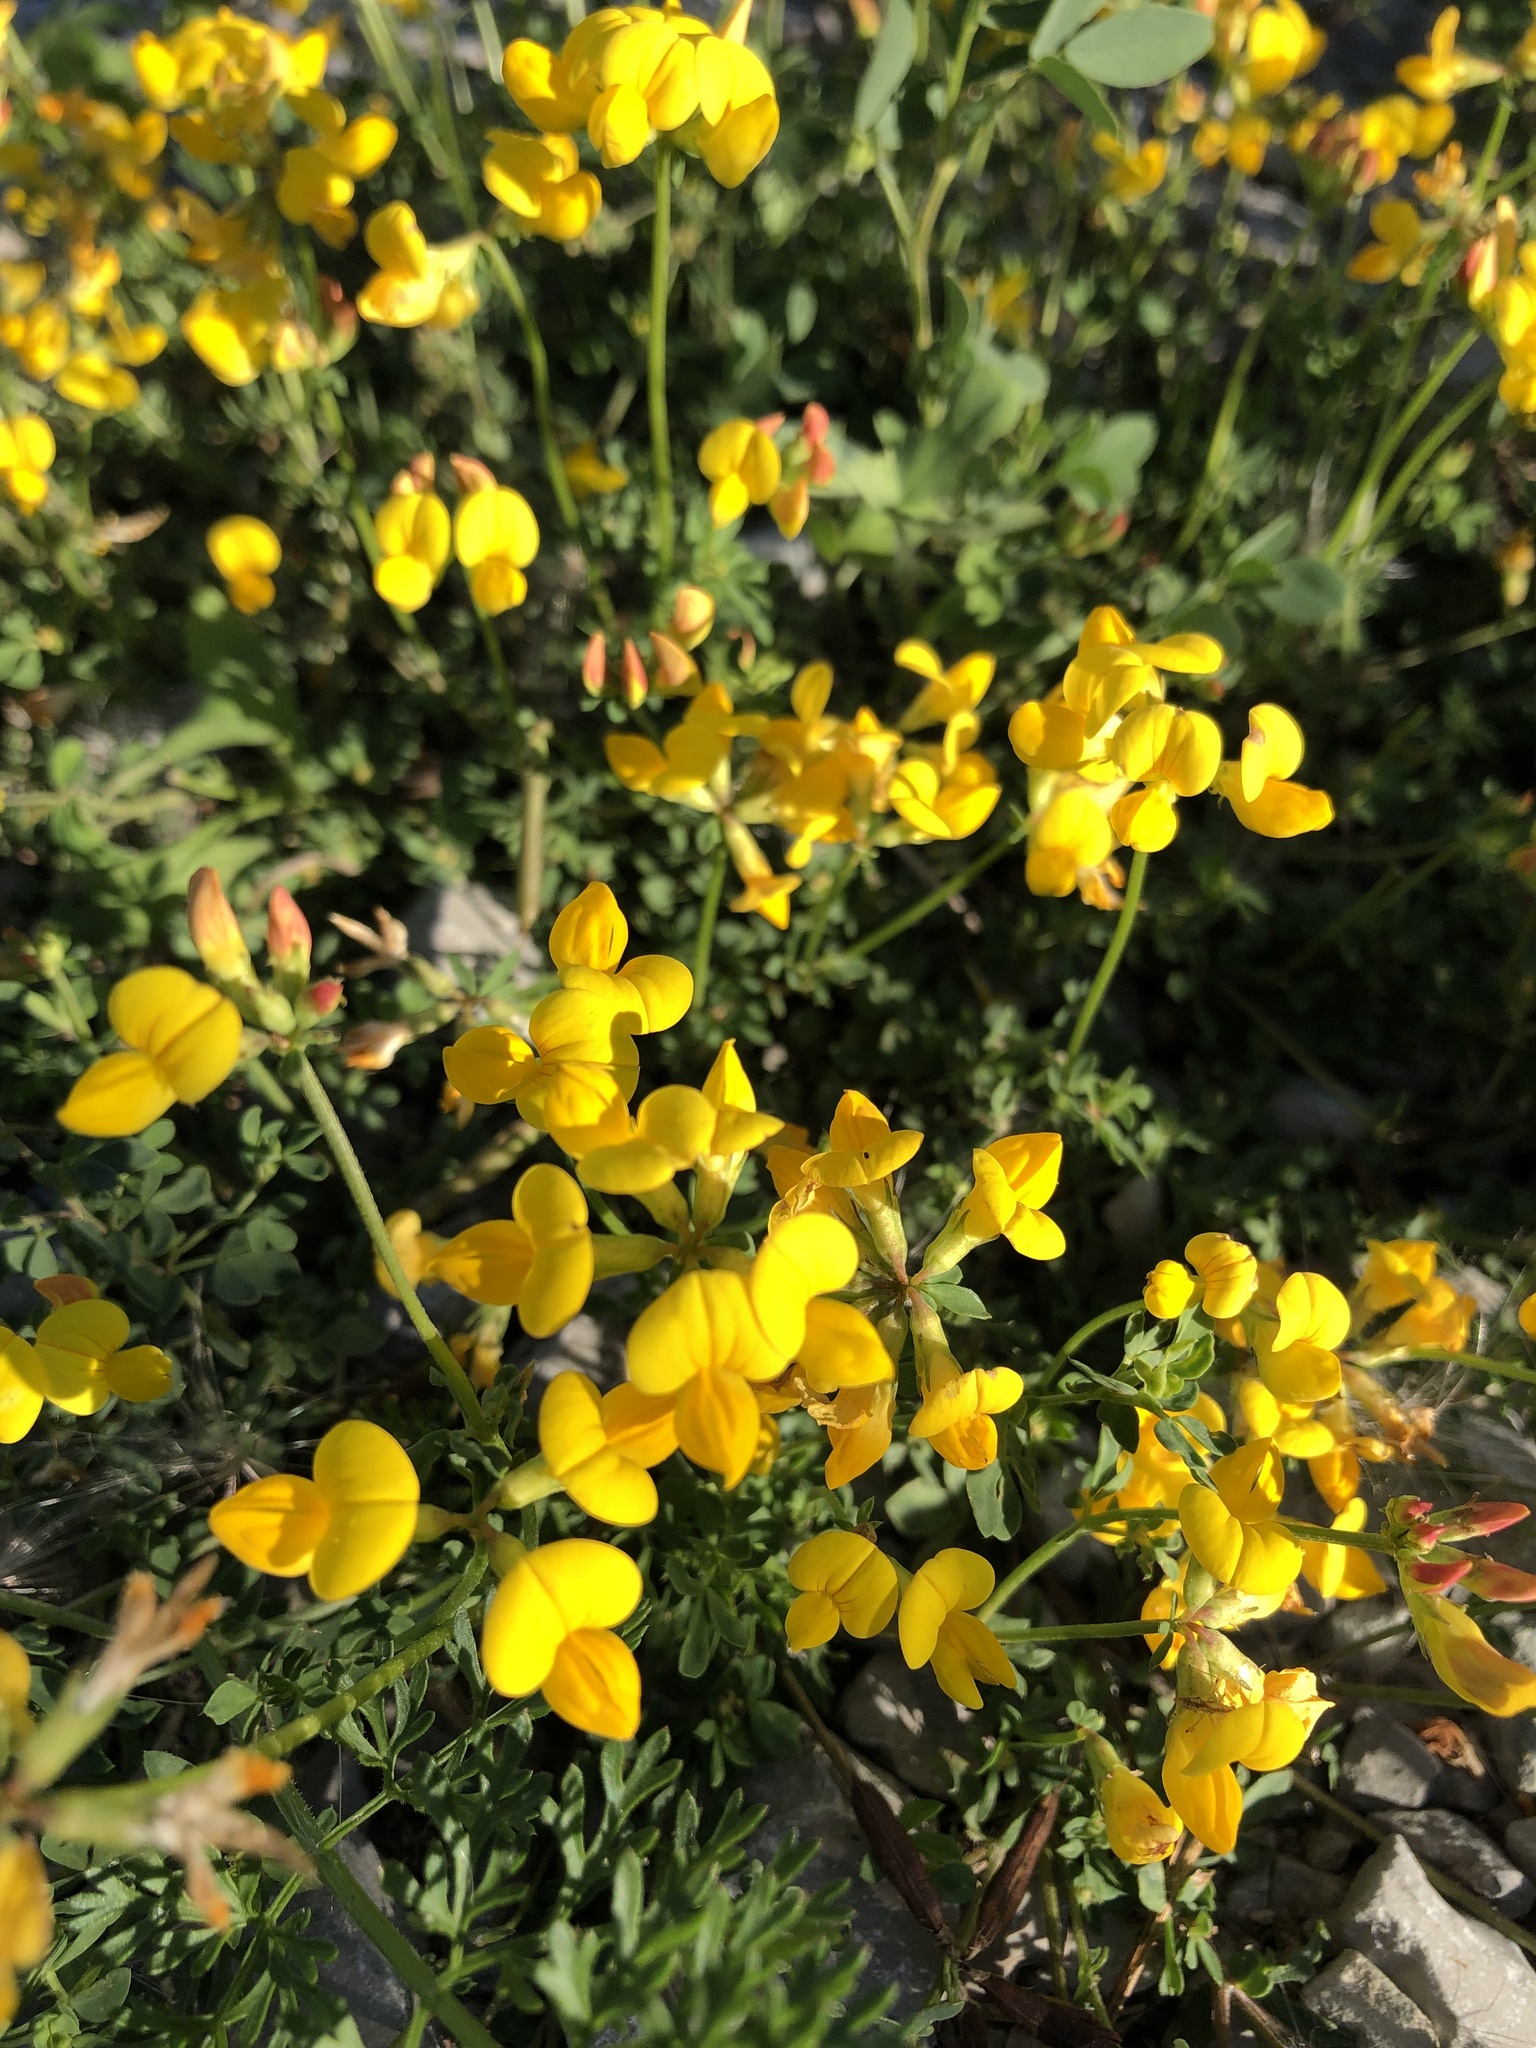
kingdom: Plantae
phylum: Tracheophyta
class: Magnoliopsida
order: Fabales
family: Fabaceae
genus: Lotus
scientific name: Lotus corniculatus
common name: Common bird's-foot-trefoil
